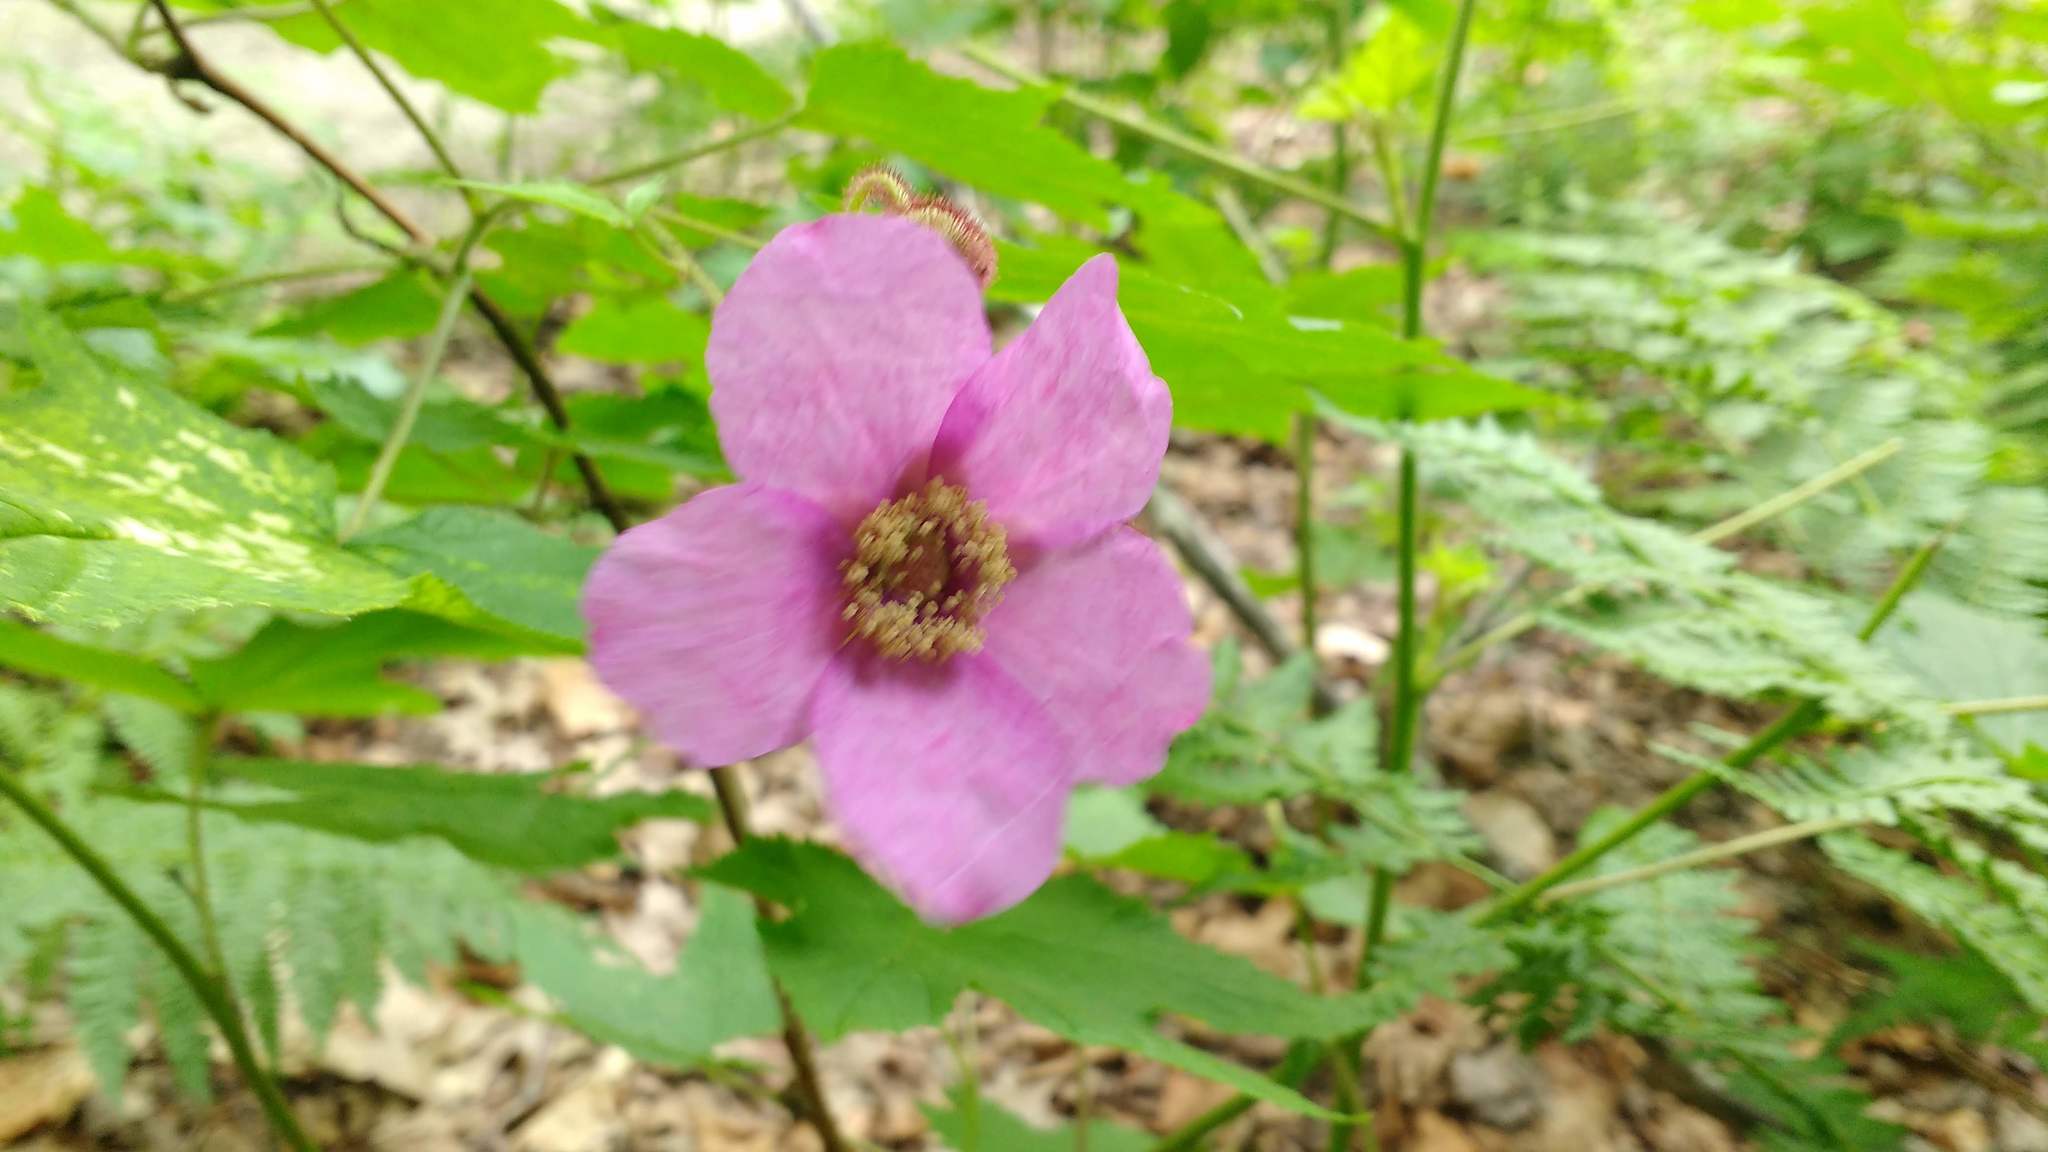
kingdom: Plantae
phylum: Tracheophyta
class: Magnoliopsida
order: Rosales
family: Rosaceae
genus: Rubus
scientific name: Rubus odoratus
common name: Purple-flowered raspberry
